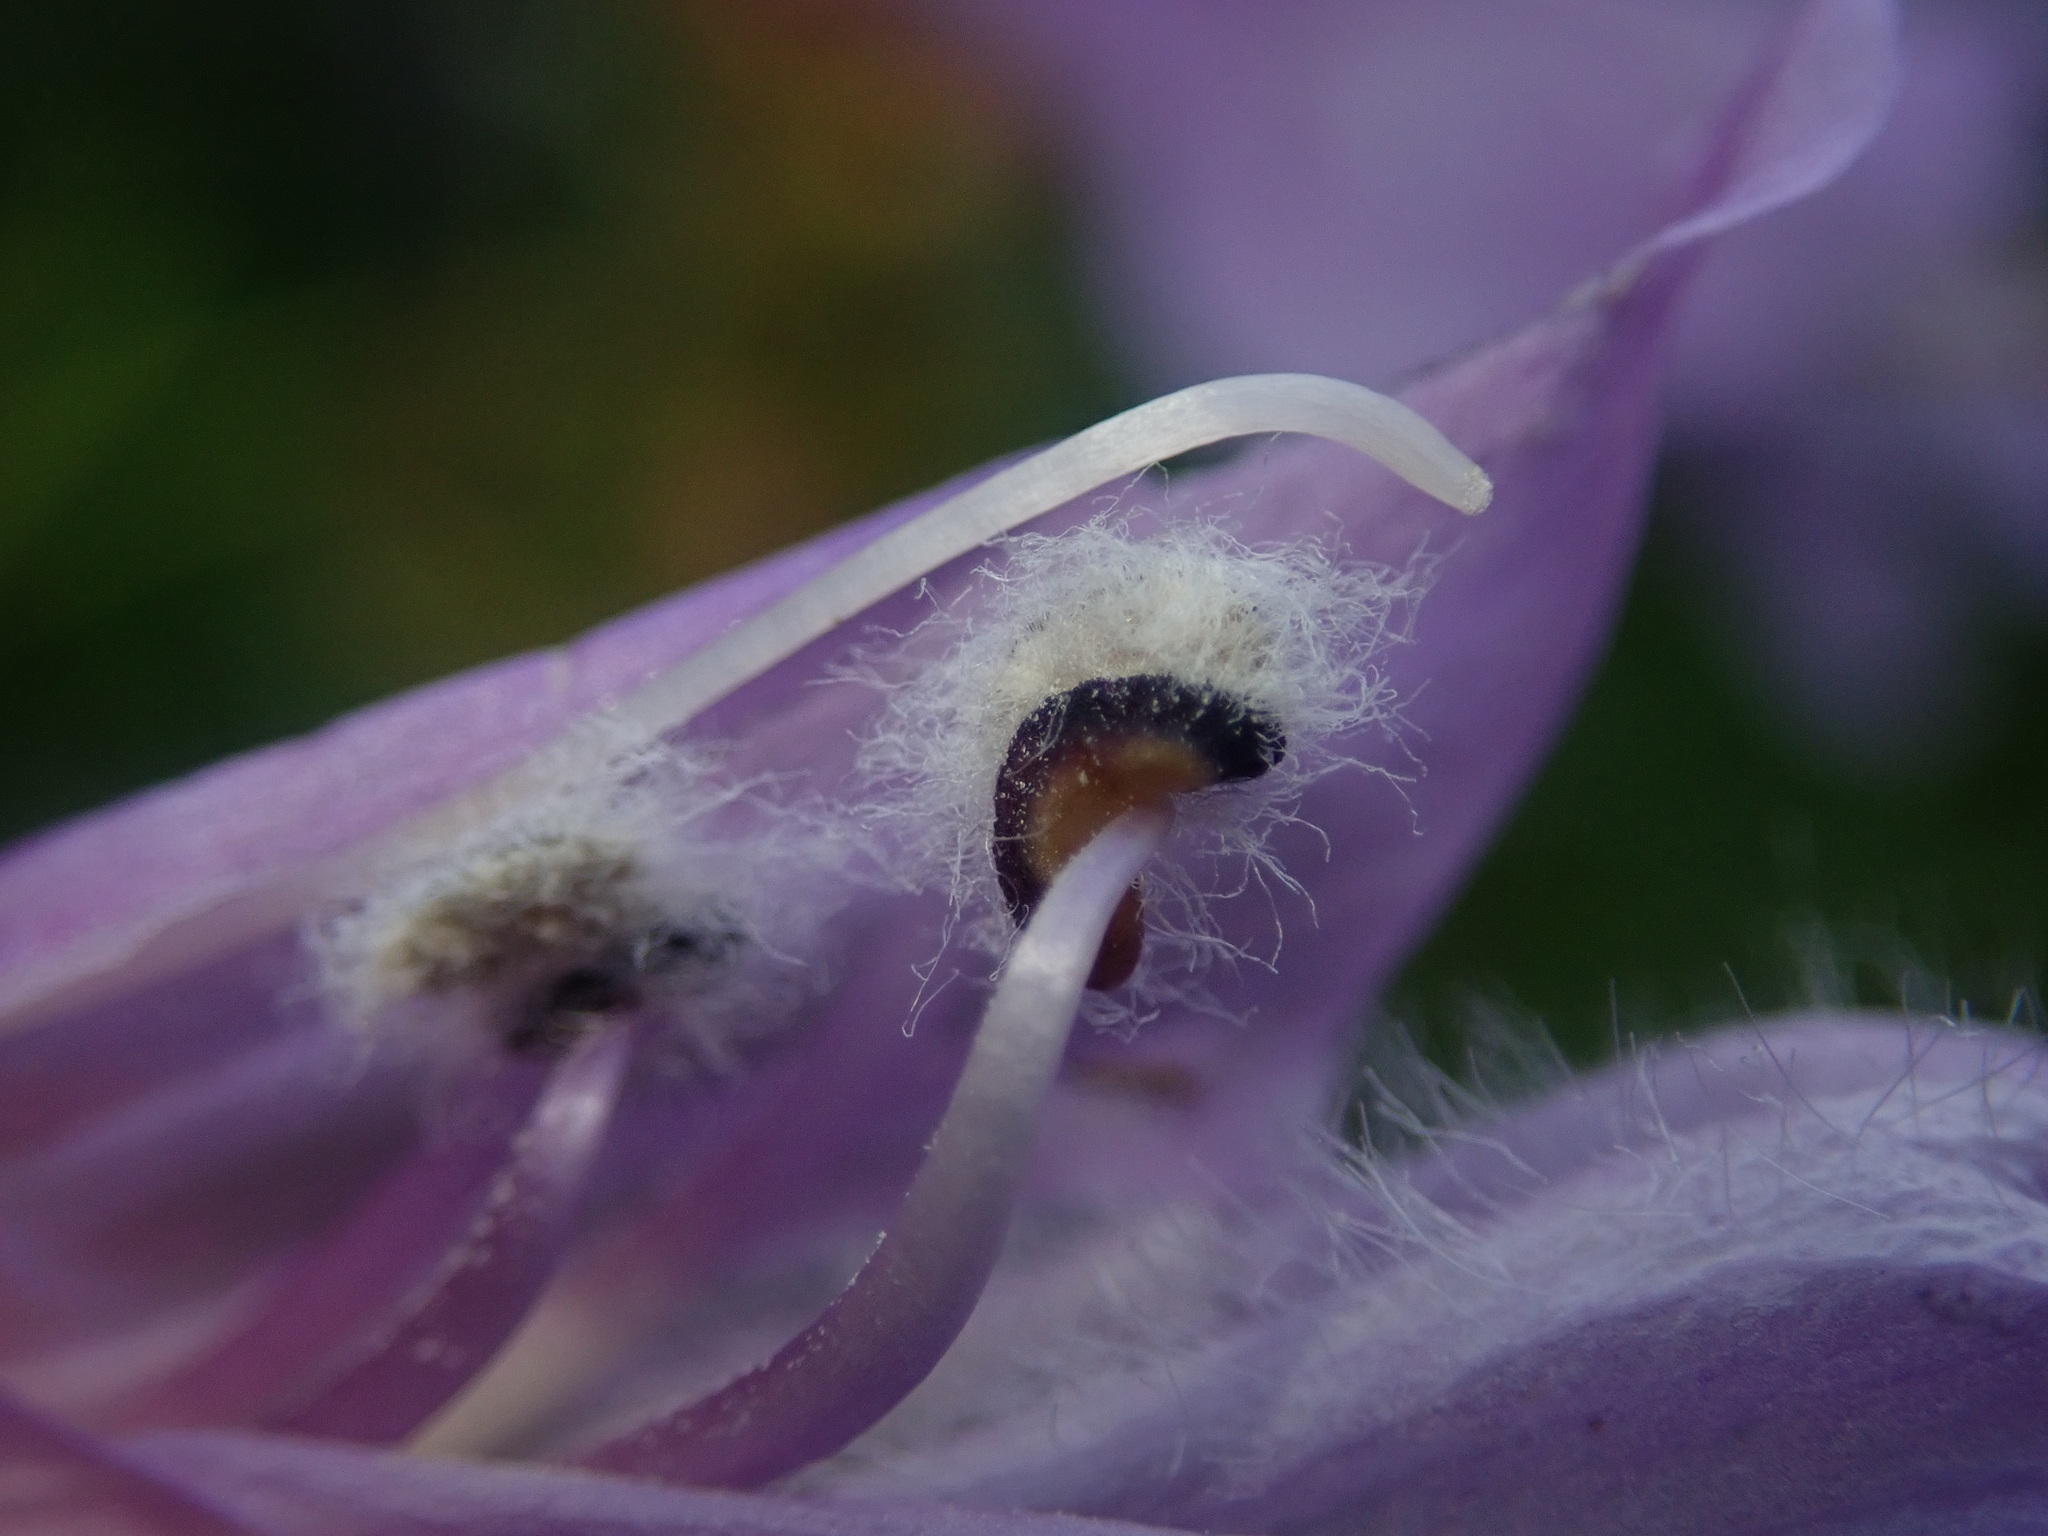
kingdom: Plantae
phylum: Tracheophyta
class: Magnoliopsida
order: Lamiales
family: Plantaginaceae
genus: Penstemon
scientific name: Penstemon fruticosus
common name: Bush penstemon
